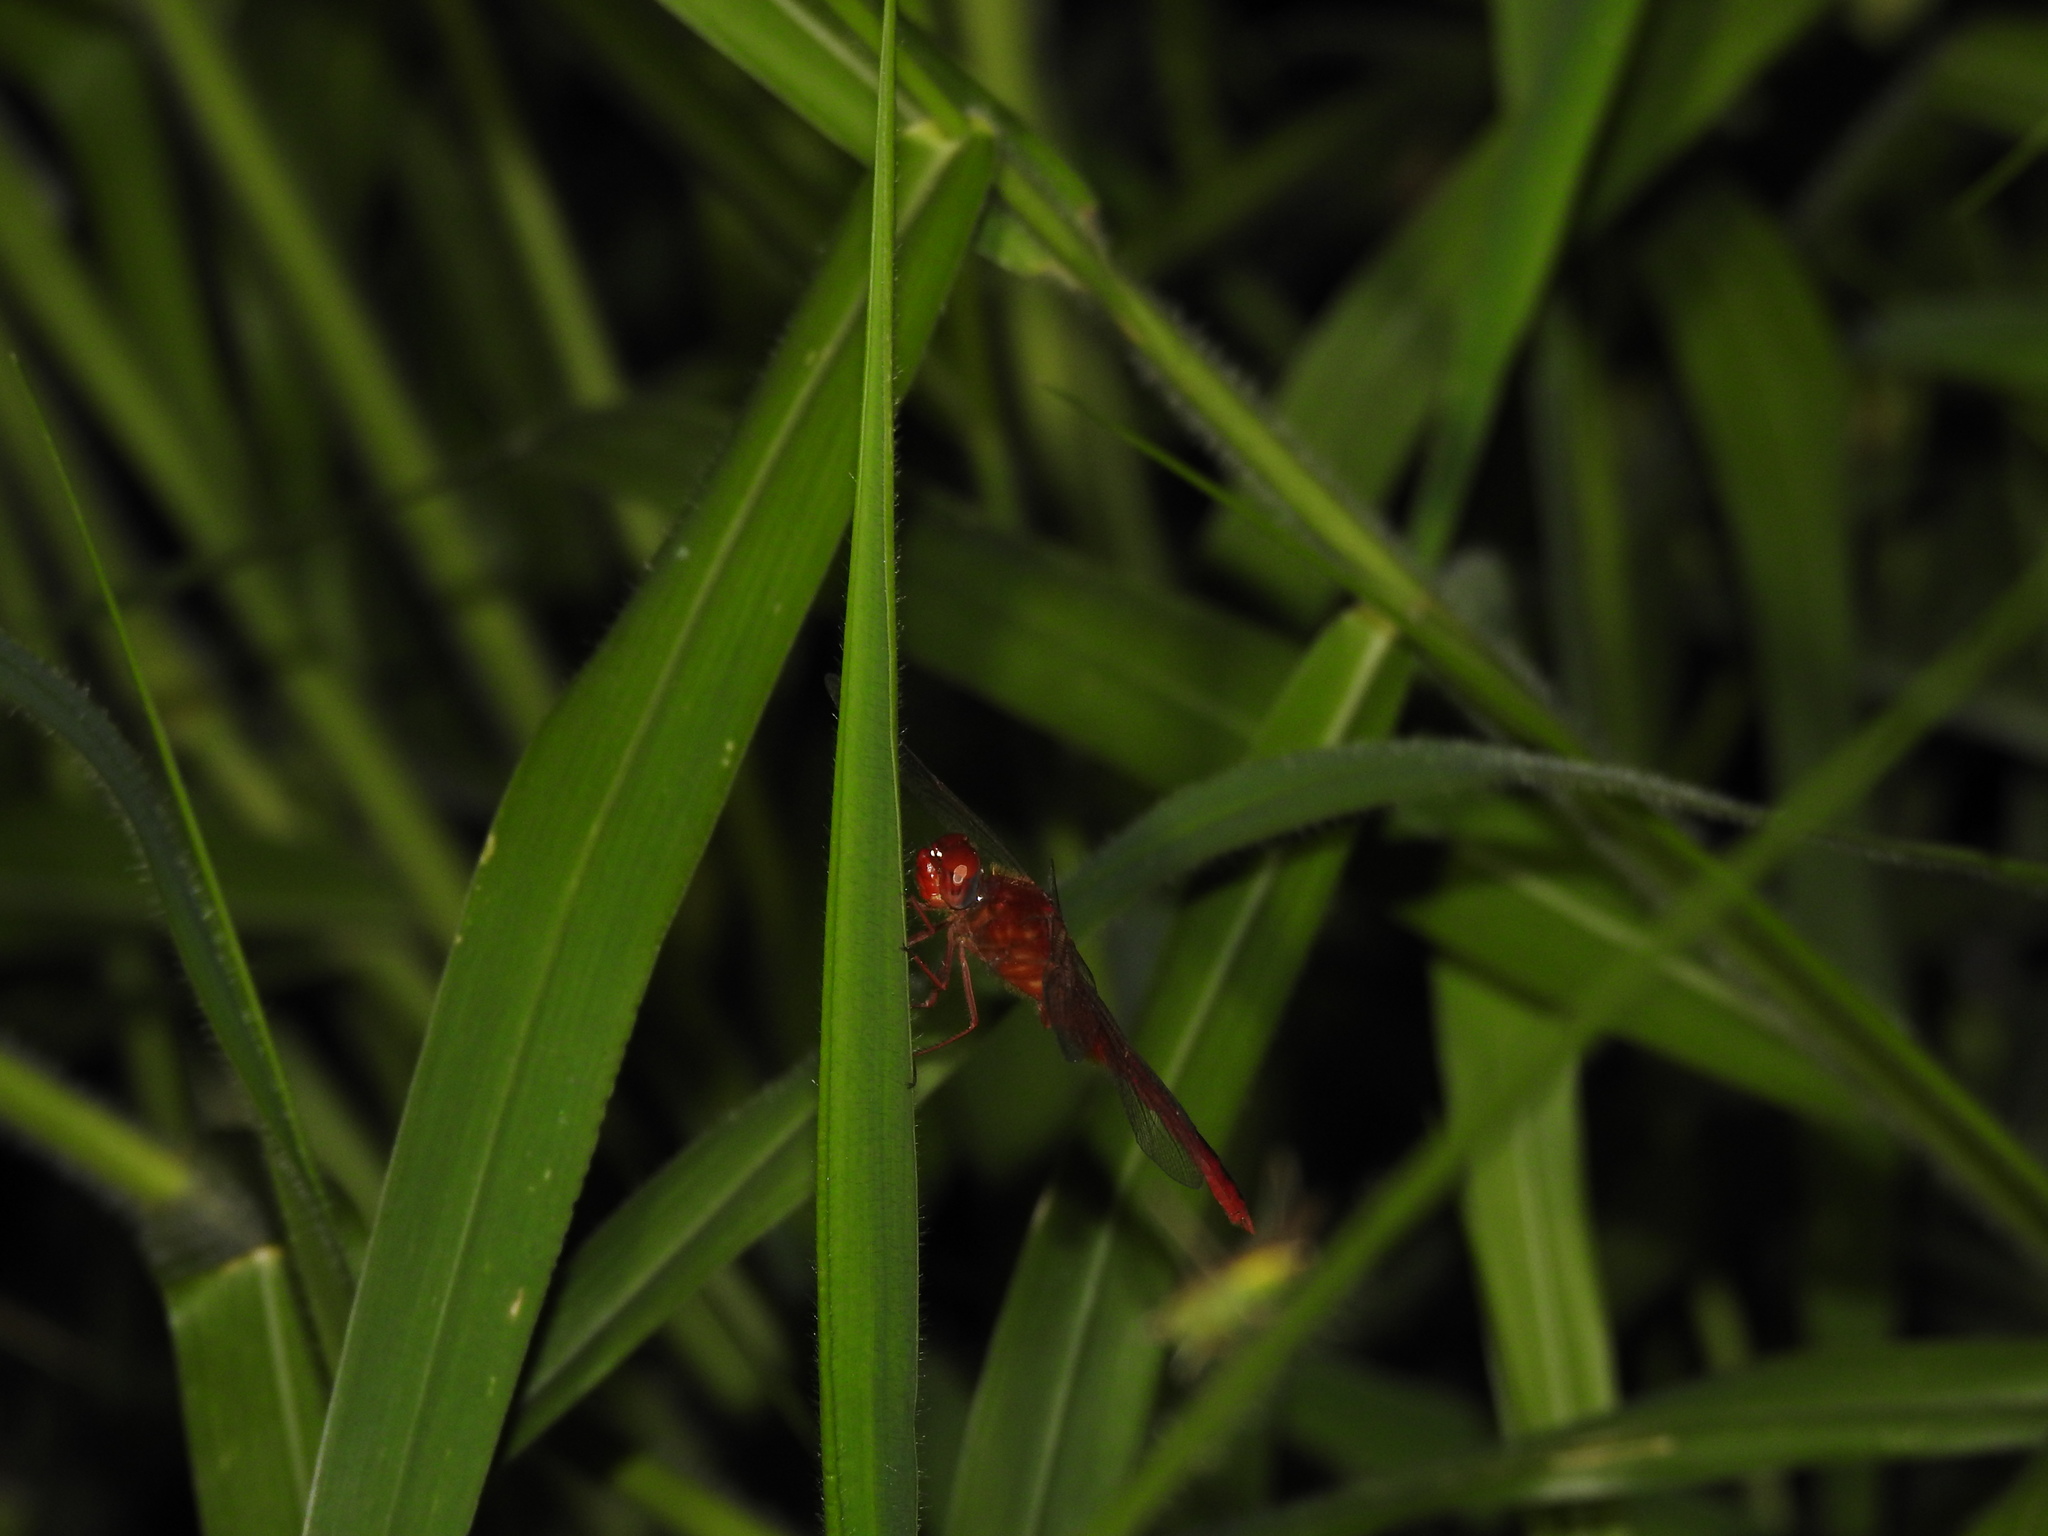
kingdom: Animalia
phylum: Arthropoda
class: Insecta
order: Odonata
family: Libellulidae
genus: Crocothemis
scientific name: Crocothemis servilia
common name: Scarlet skimmer
